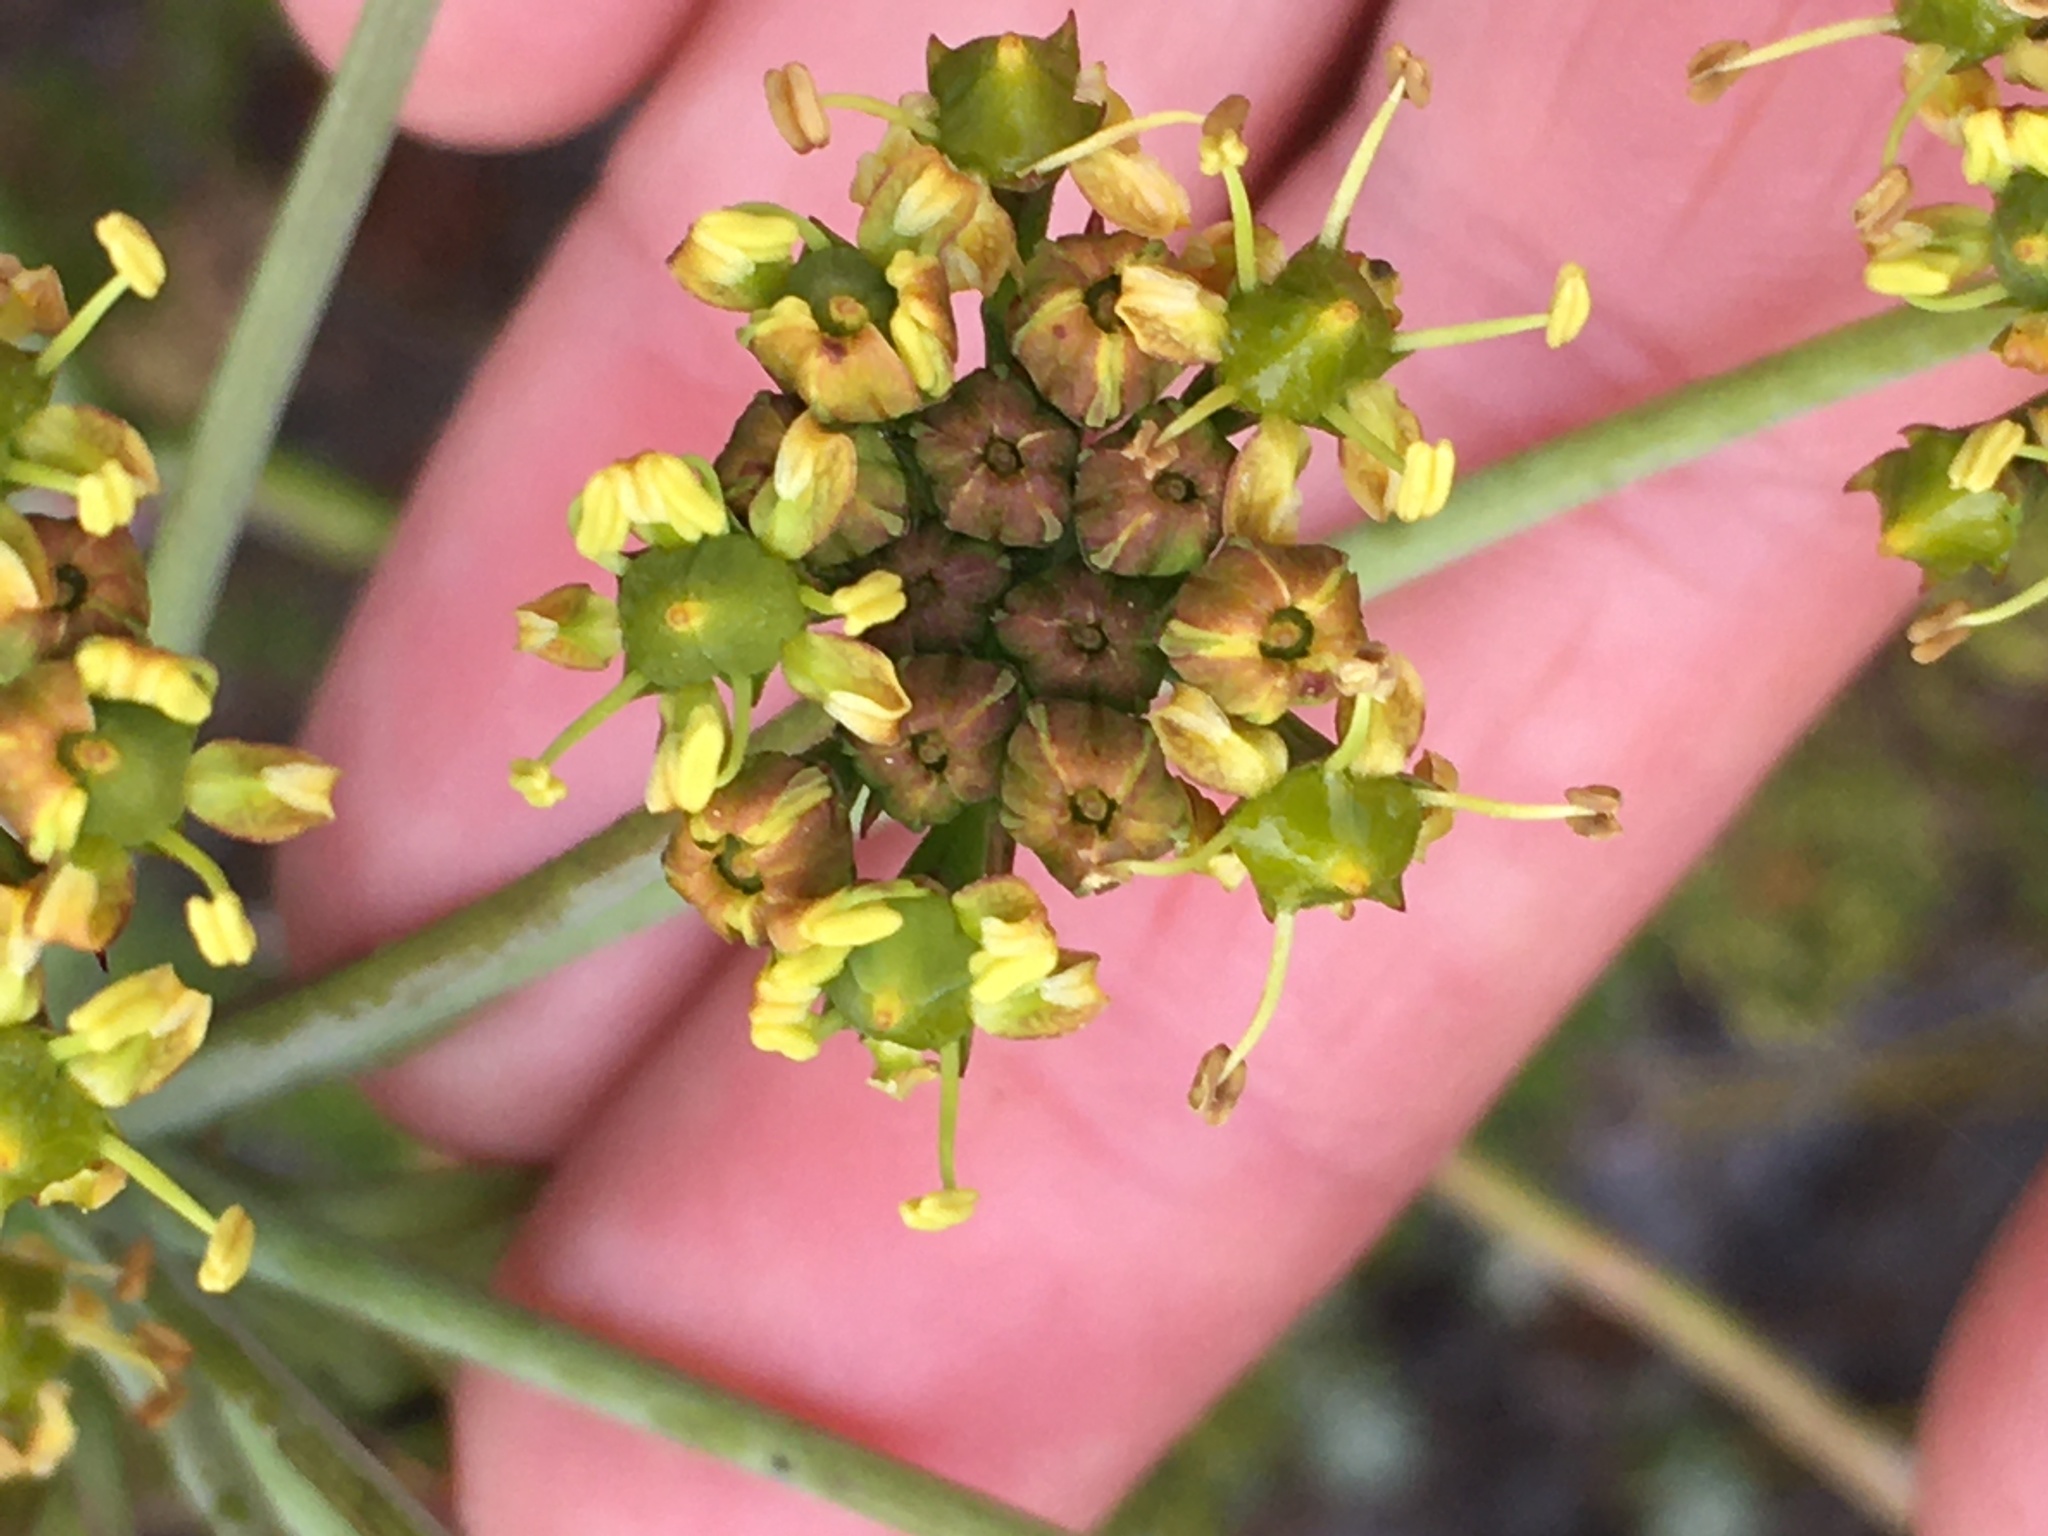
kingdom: Plantae
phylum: Tracheophyta
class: Magnoliopsida
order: Apiales
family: Apiaceae
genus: Lichtensteinia
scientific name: Lichtensteinia lacera
